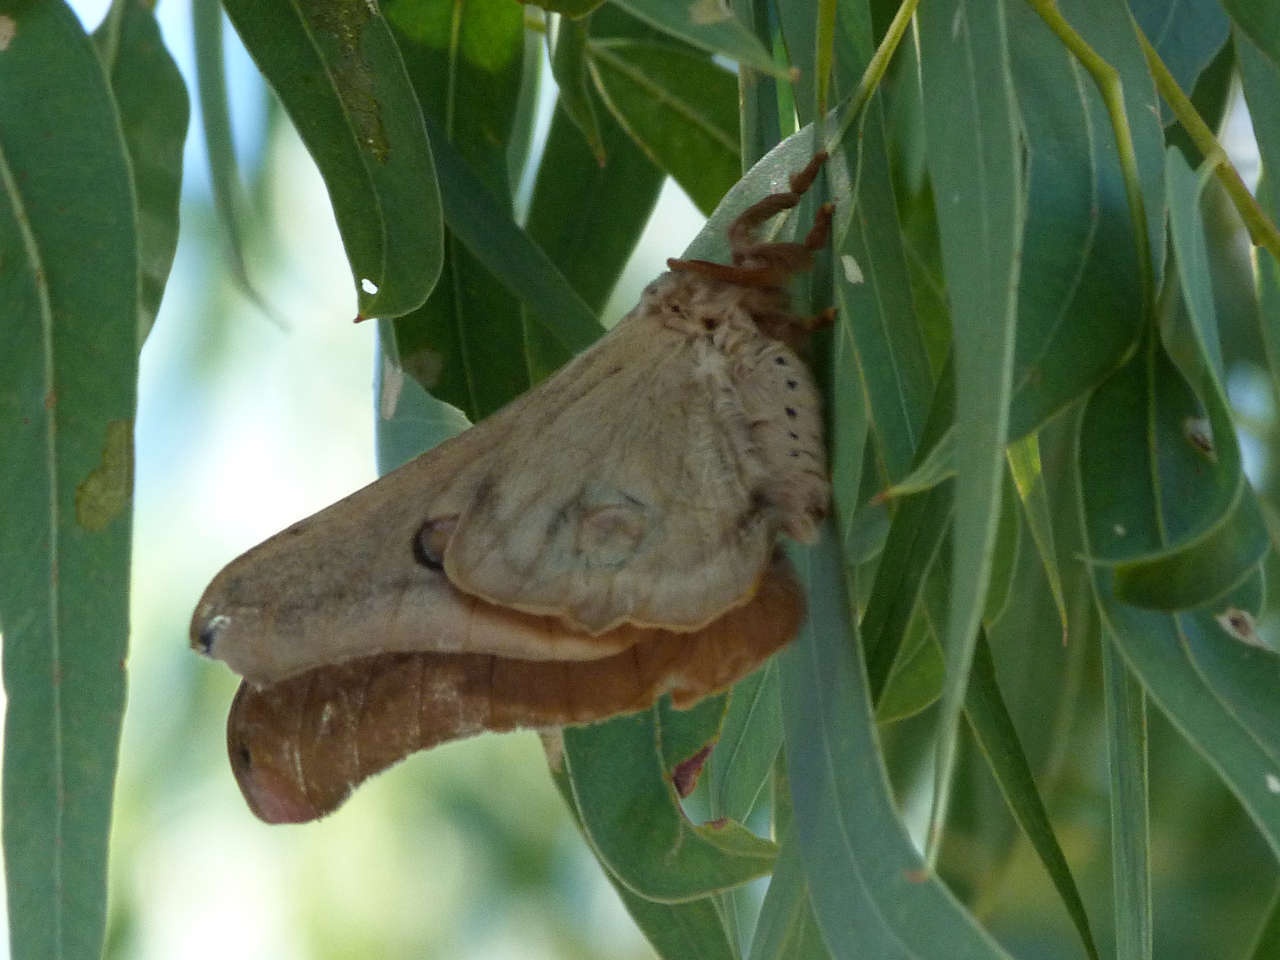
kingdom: Animalia
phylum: Arthropoda
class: Insecta
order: Lepidoptera
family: Saturniidae
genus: Opodiphthera
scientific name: Opodiphthera
